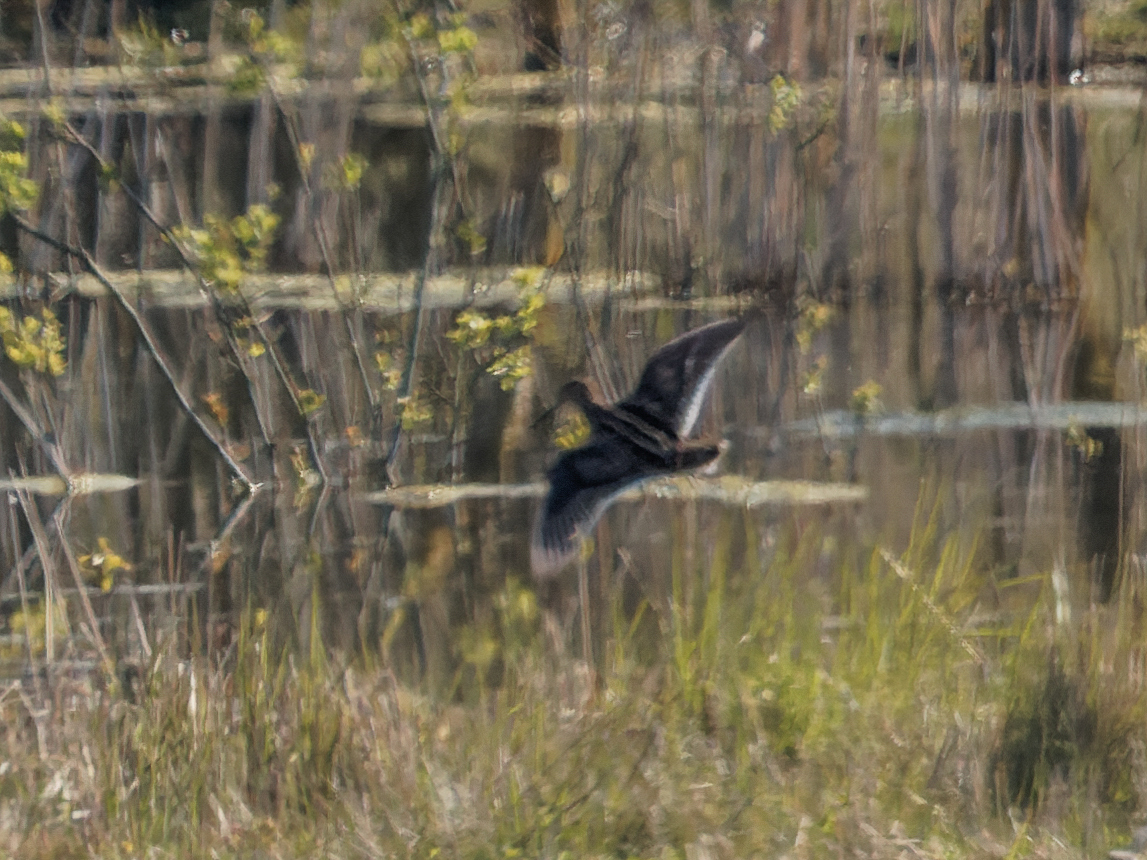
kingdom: Animalia
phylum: Chordata
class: Aves
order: Charadriiformes
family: Scolopacidae
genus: Gallinago
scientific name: Gallinago gallinago
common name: Common snipe
